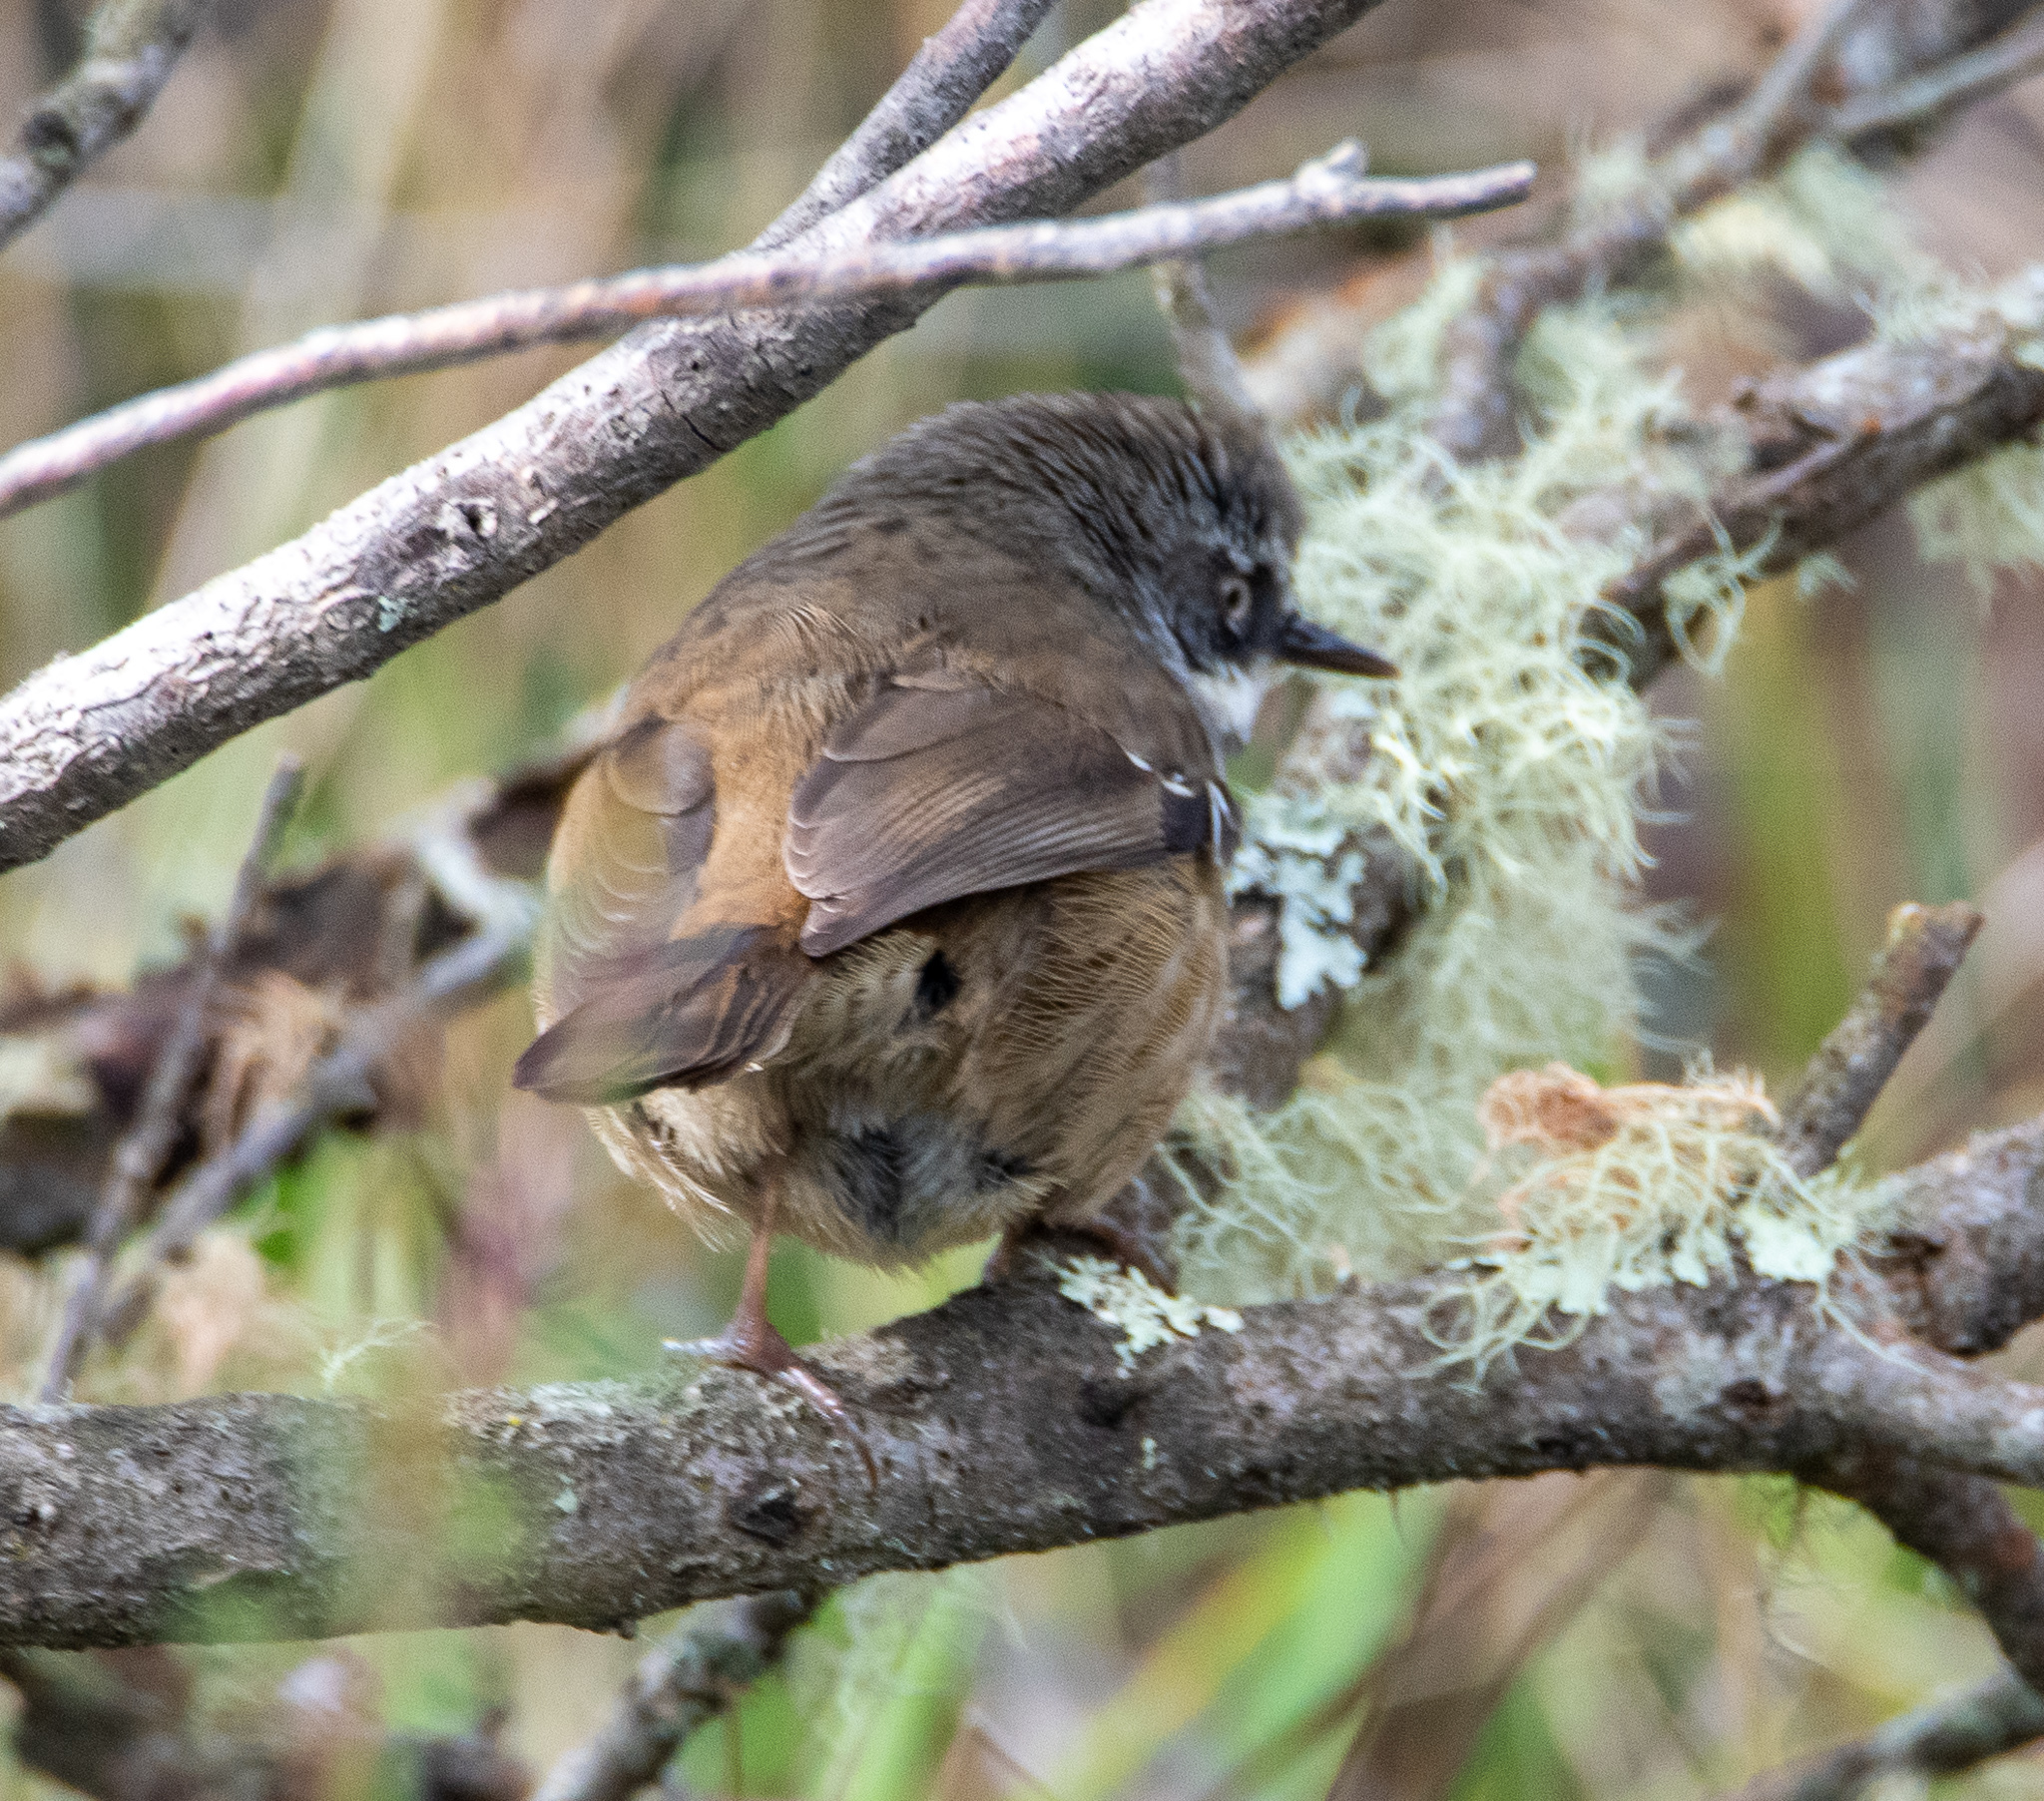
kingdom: Animalia
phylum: Chordata
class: Aves
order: Passeriformes
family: Acanthizidae
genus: Sericornis
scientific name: Sericornis frontalis
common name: White-browed scrubwren
